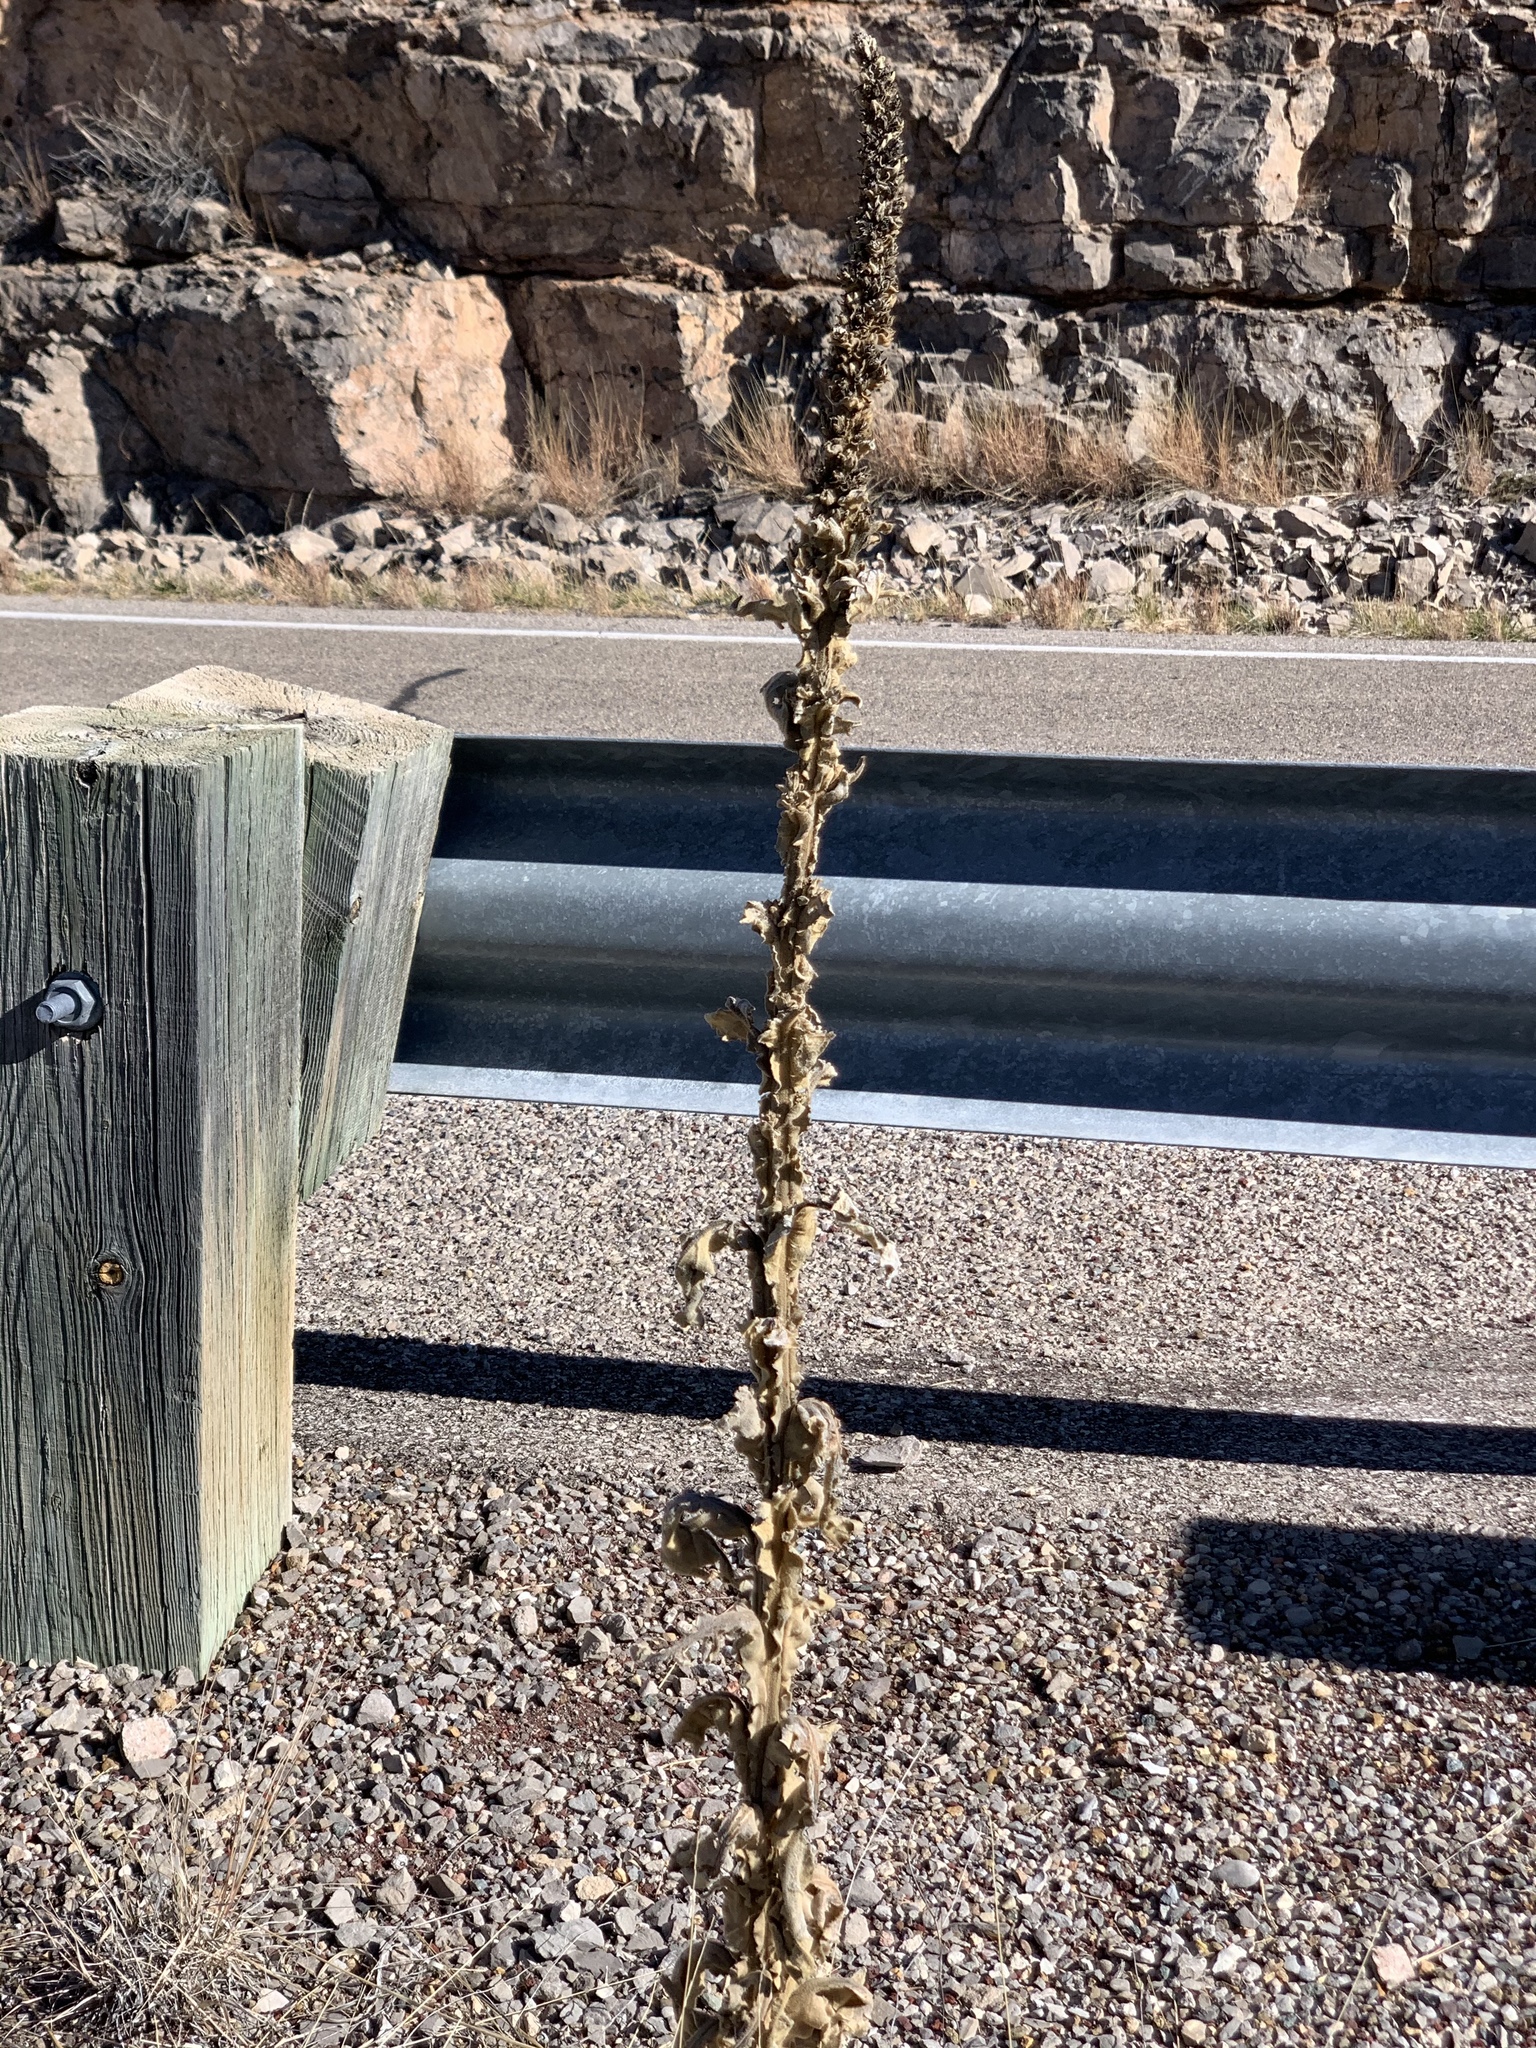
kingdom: Plantae
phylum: Tracheophyta
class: Magnoliopsida
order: Lamiales
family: Scrophulariaceae
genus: Verbascum
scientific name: Verbascum thapsus
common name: Common mullein
